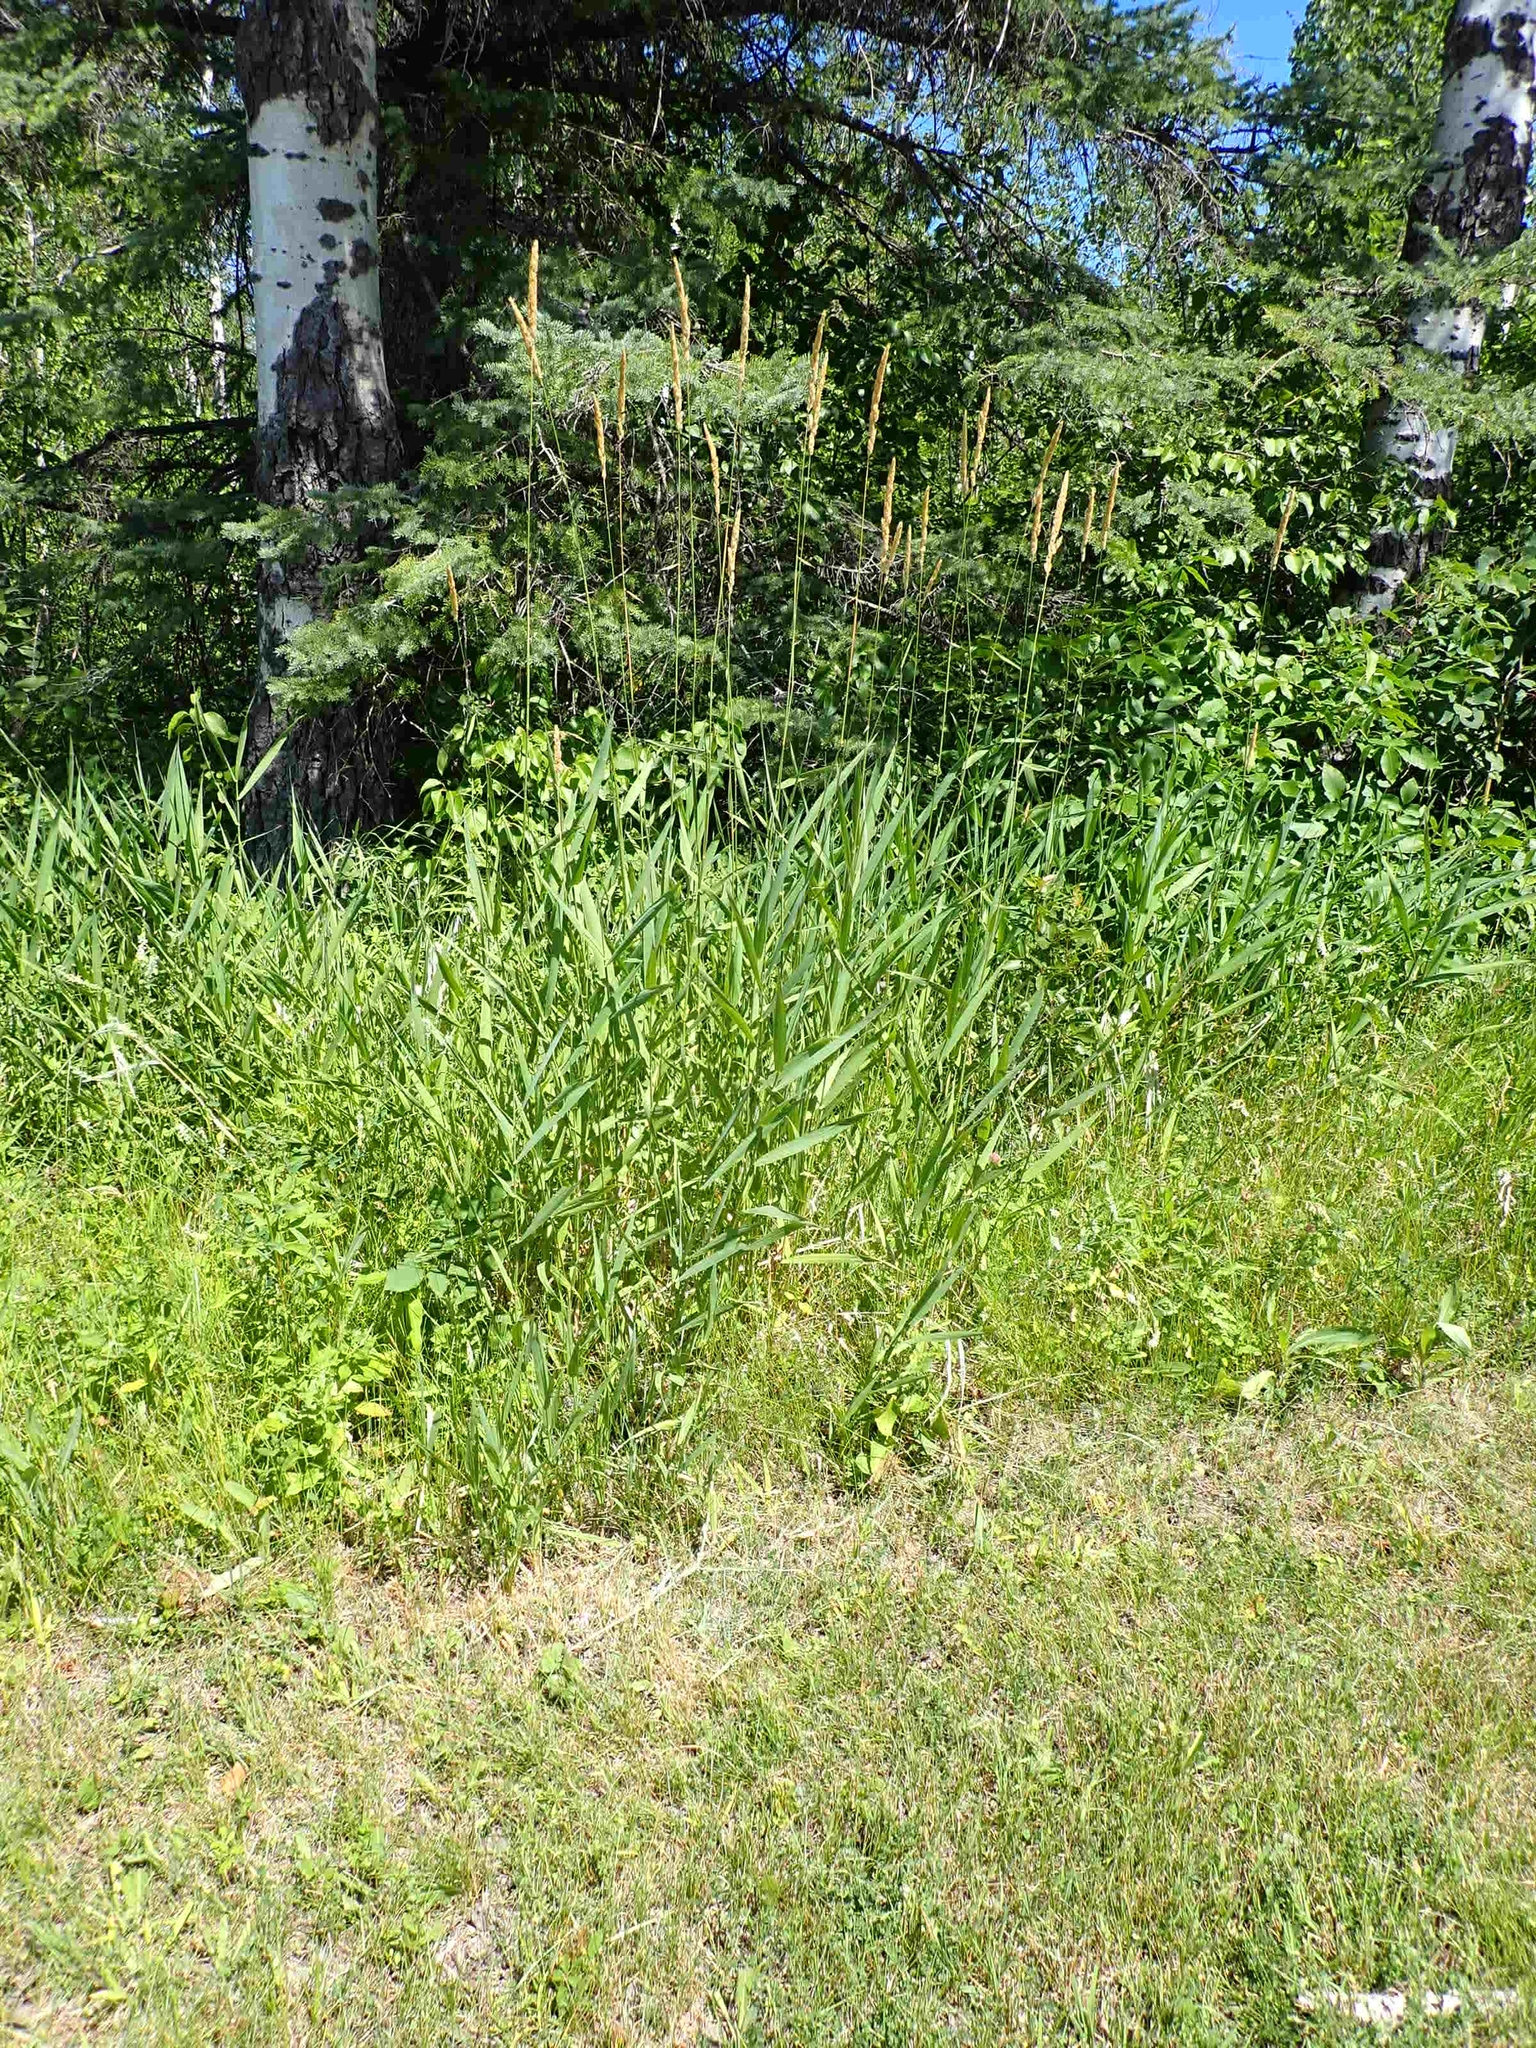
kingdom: Plantae
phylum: Tracheophyta
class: Liliopsida
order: Poales
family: Poaceae
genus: Phalaris
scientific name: Phalaris arundinacea
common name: Reed canary-grass
